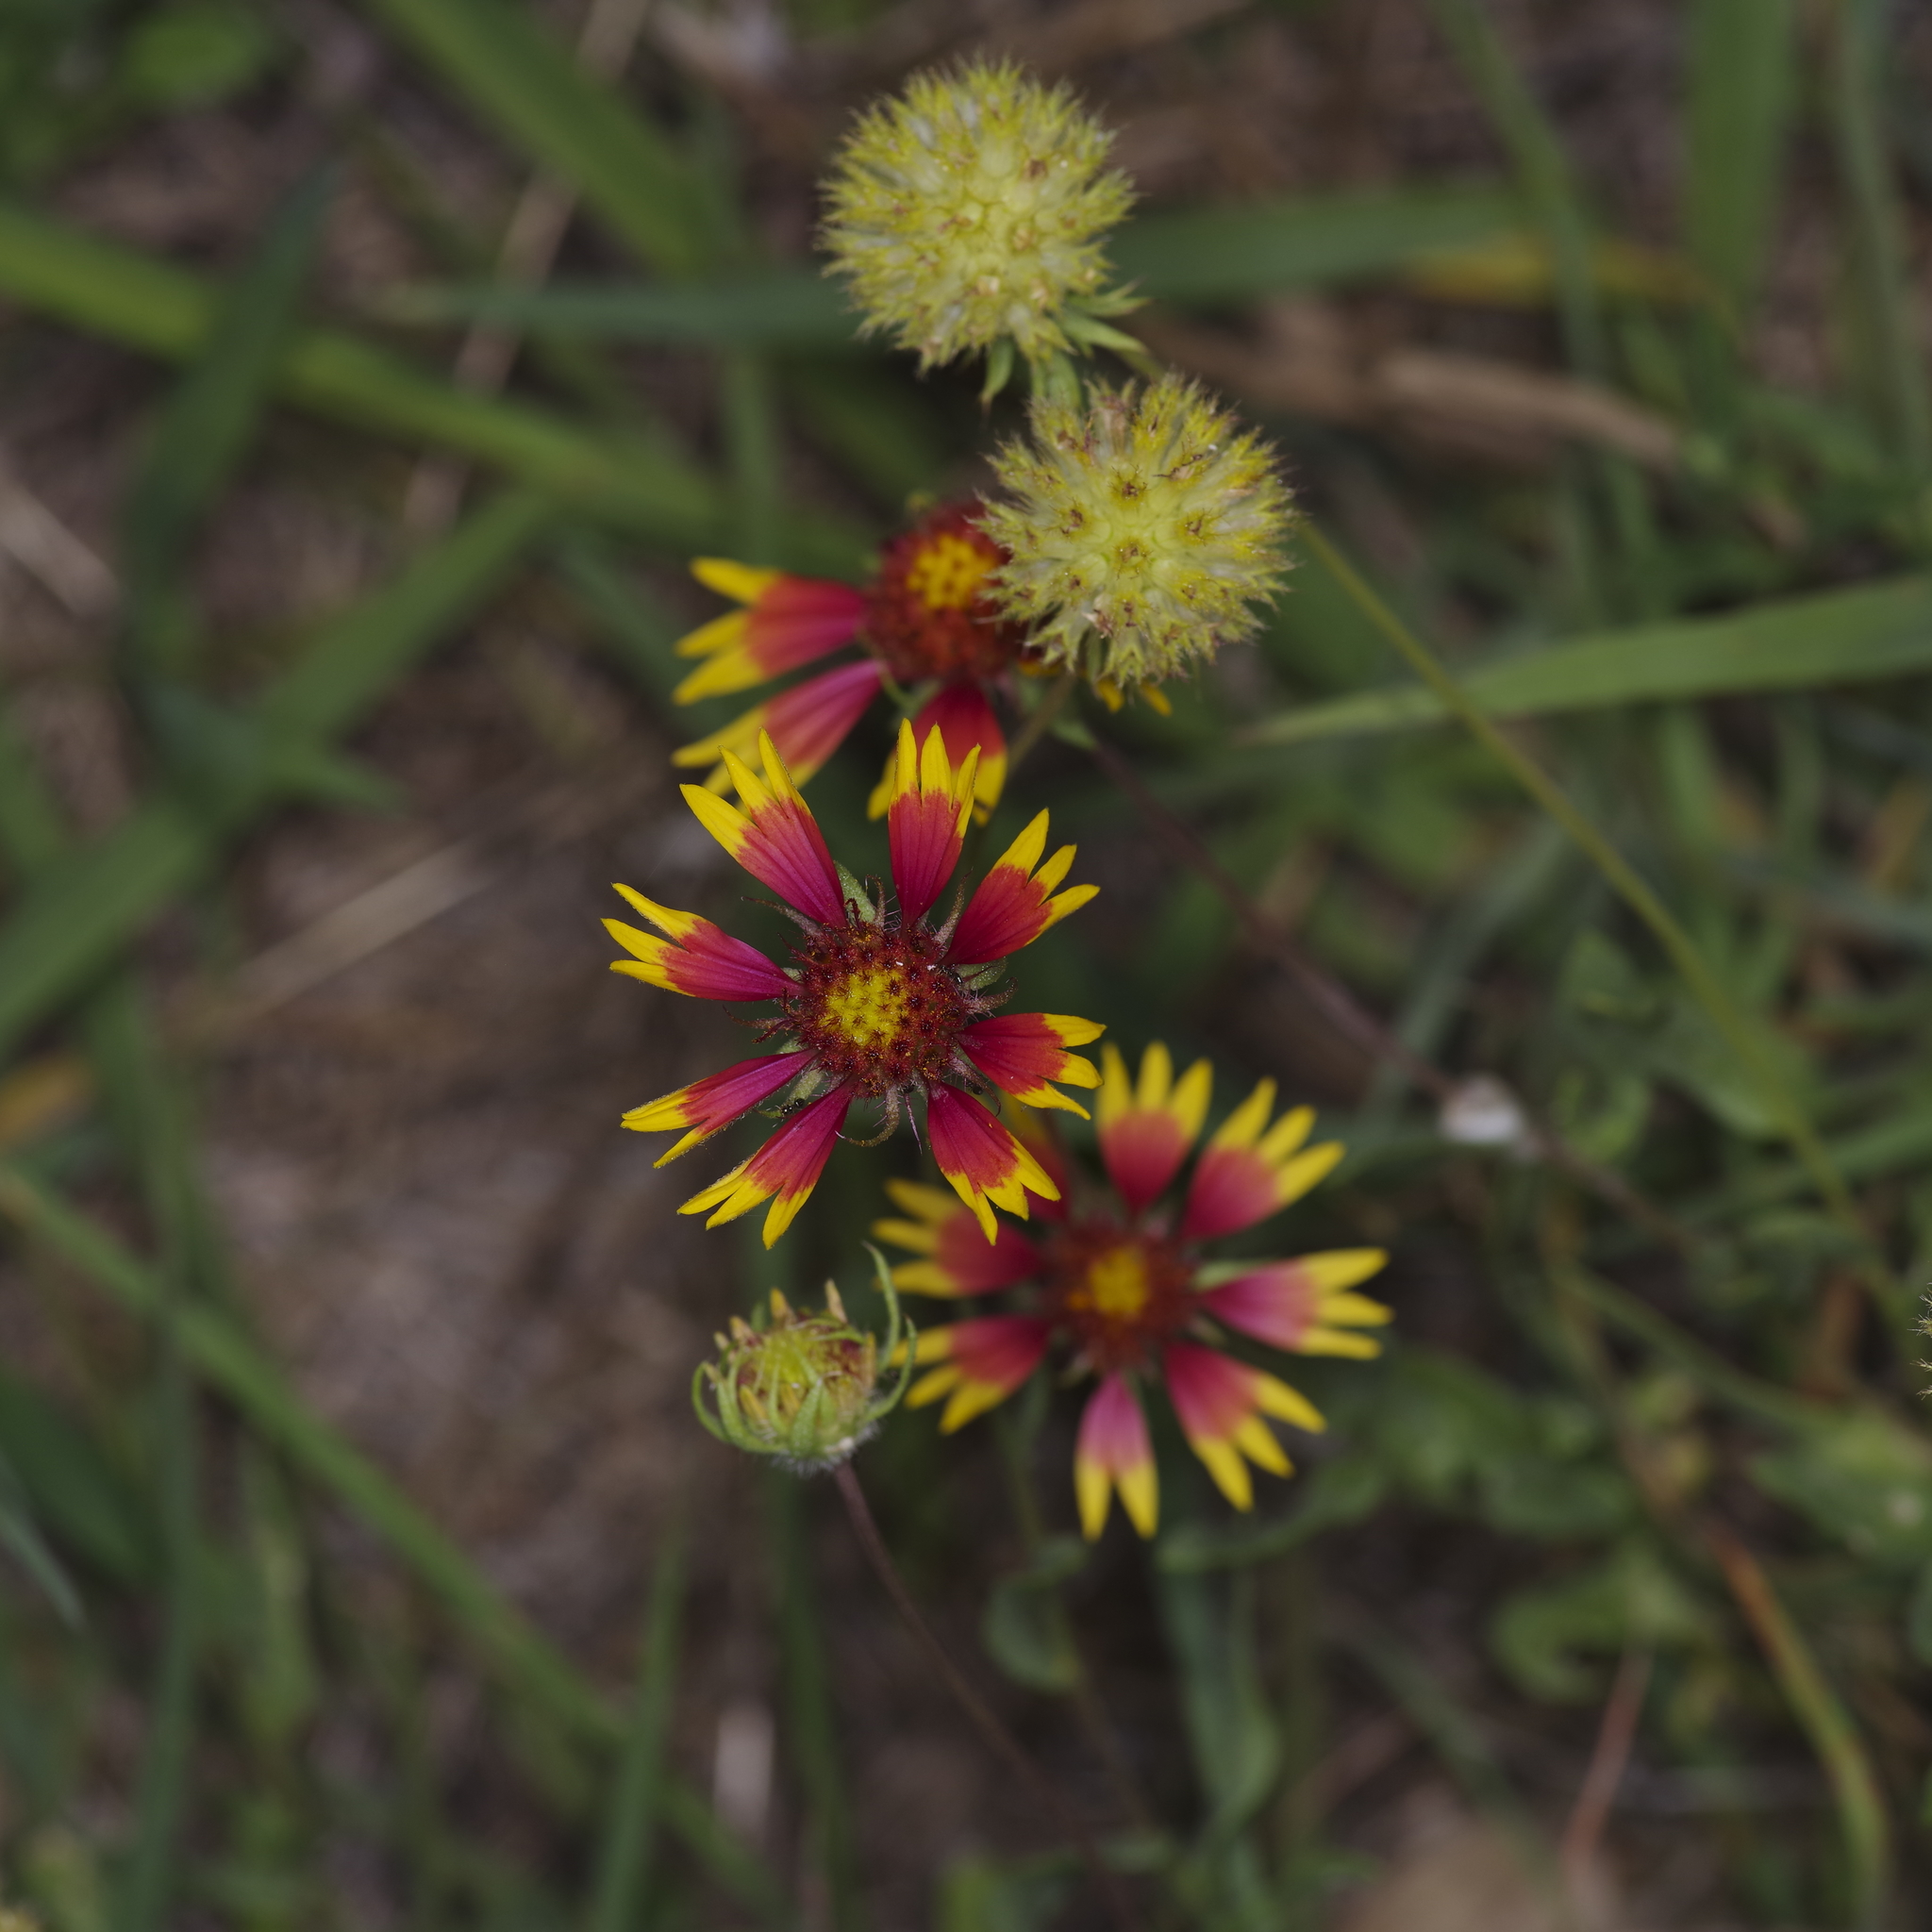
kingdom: Plantae
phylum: Tracheophyta
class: Magnoliopsida
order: Asterales
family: Asteraceae
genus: Gaillardia
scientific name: Gaillardia pulchella
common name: Firewheel
